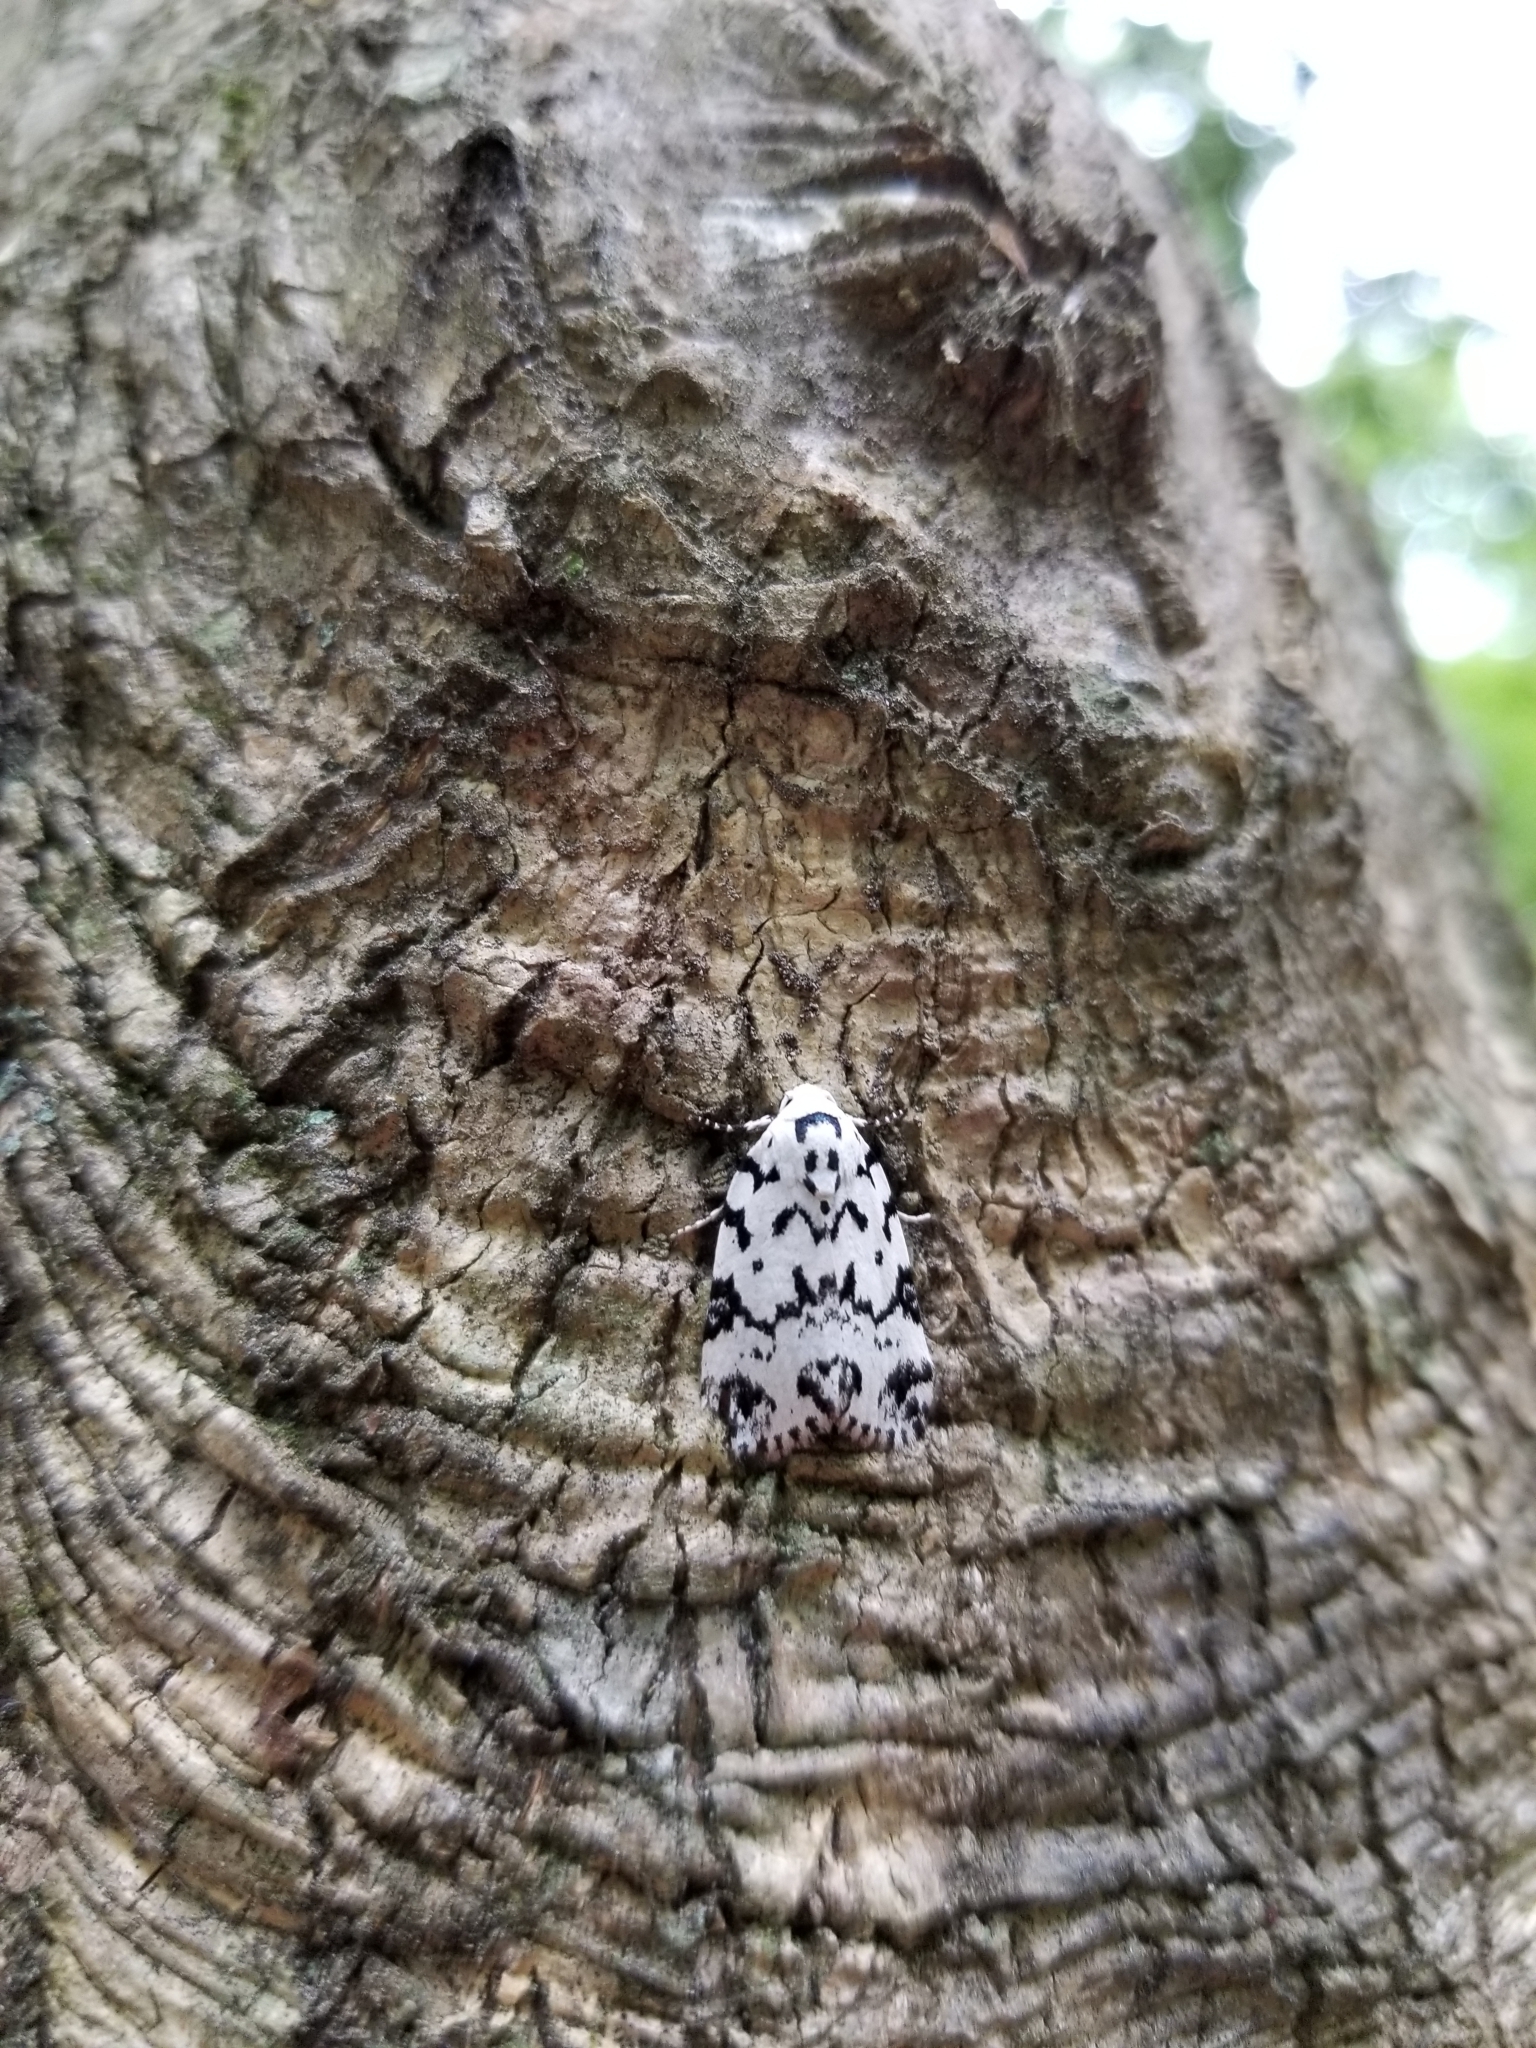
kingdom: Animalia
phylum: Arthropoda
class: Insecta
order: Lepidoptera
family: Noctuidae
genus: Polygrammate
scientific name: Polygrammate hebraeicum
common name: Hebrew moth
